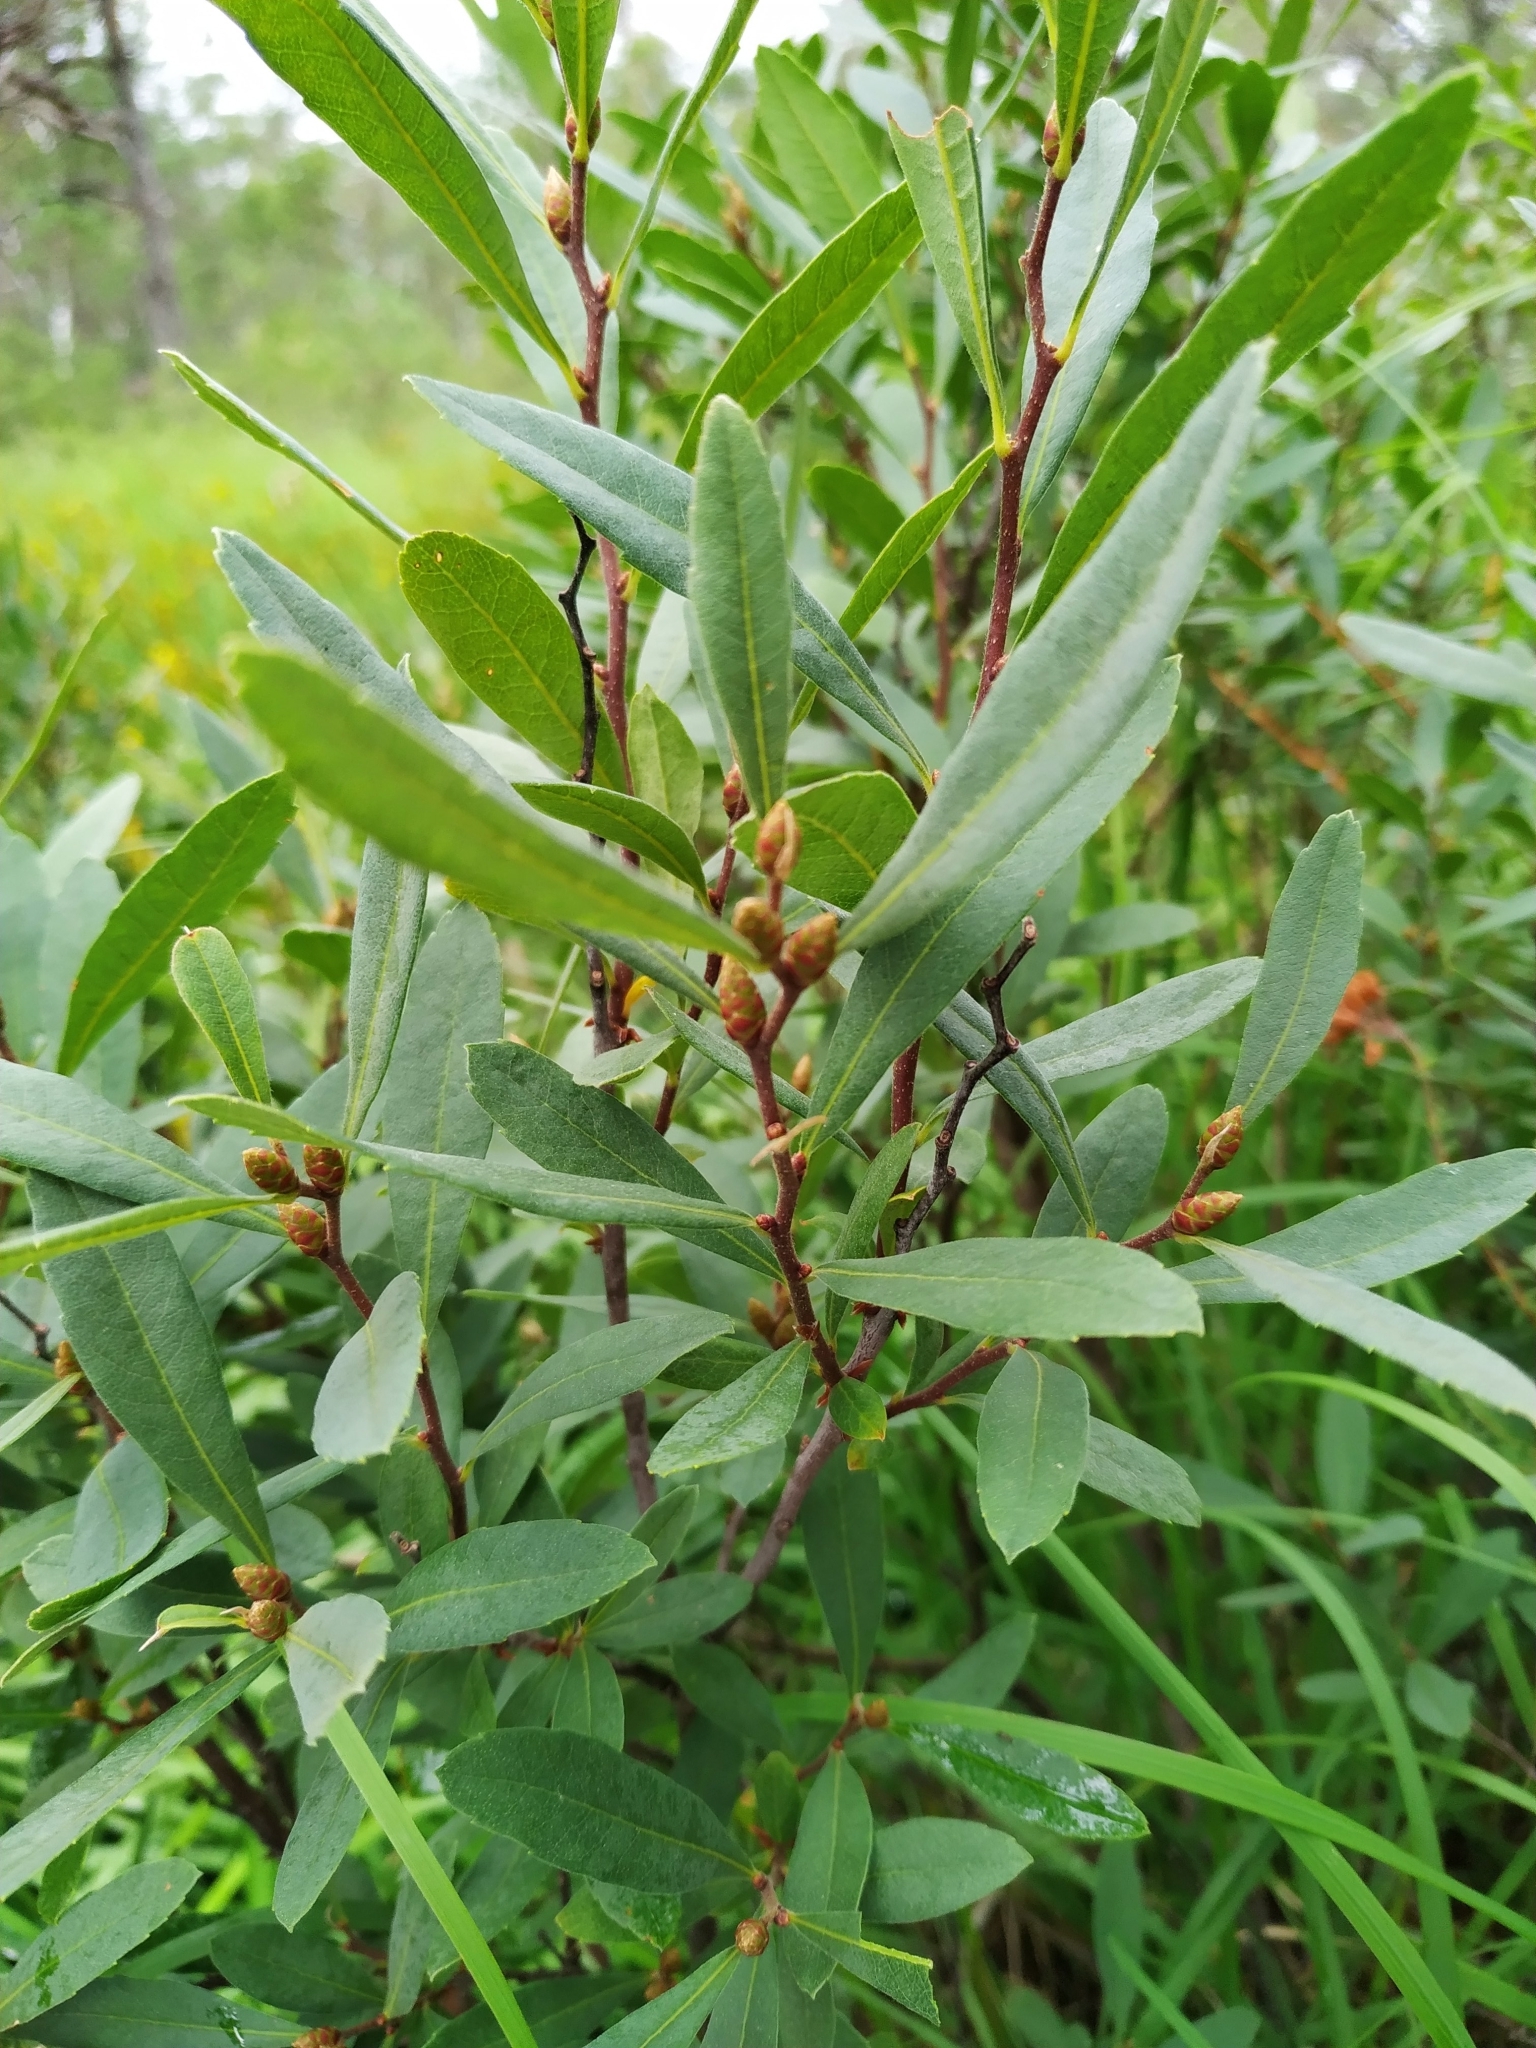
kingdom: Plantae
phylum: Tracheophyta
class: Magnoliopsida
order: Fagales
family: Myricaceae
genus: Myrica
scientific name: Myrica gale
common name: Sweet gale
